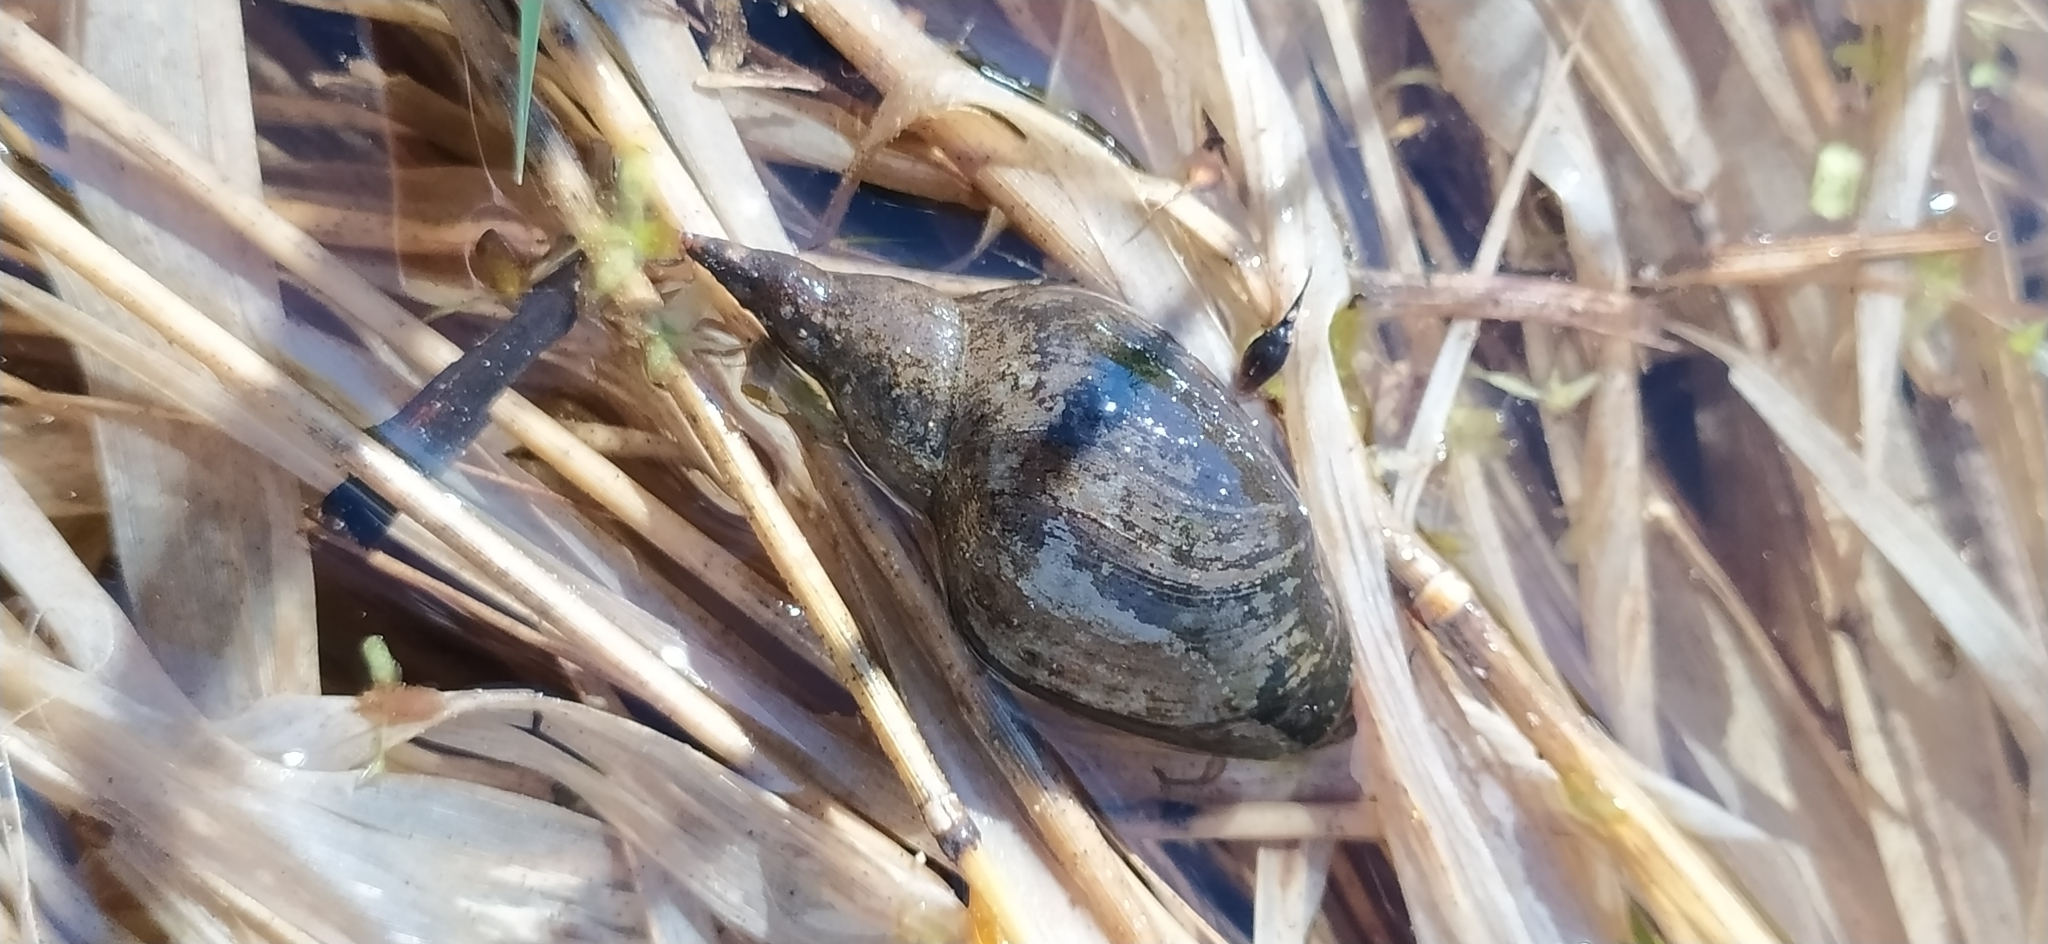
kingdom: Animalia
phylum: Mollusca
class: Gastropoda
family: Lymnaeidae
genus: Lymnaea
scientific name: Lymnaea stagnalis
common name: Great pond snail
